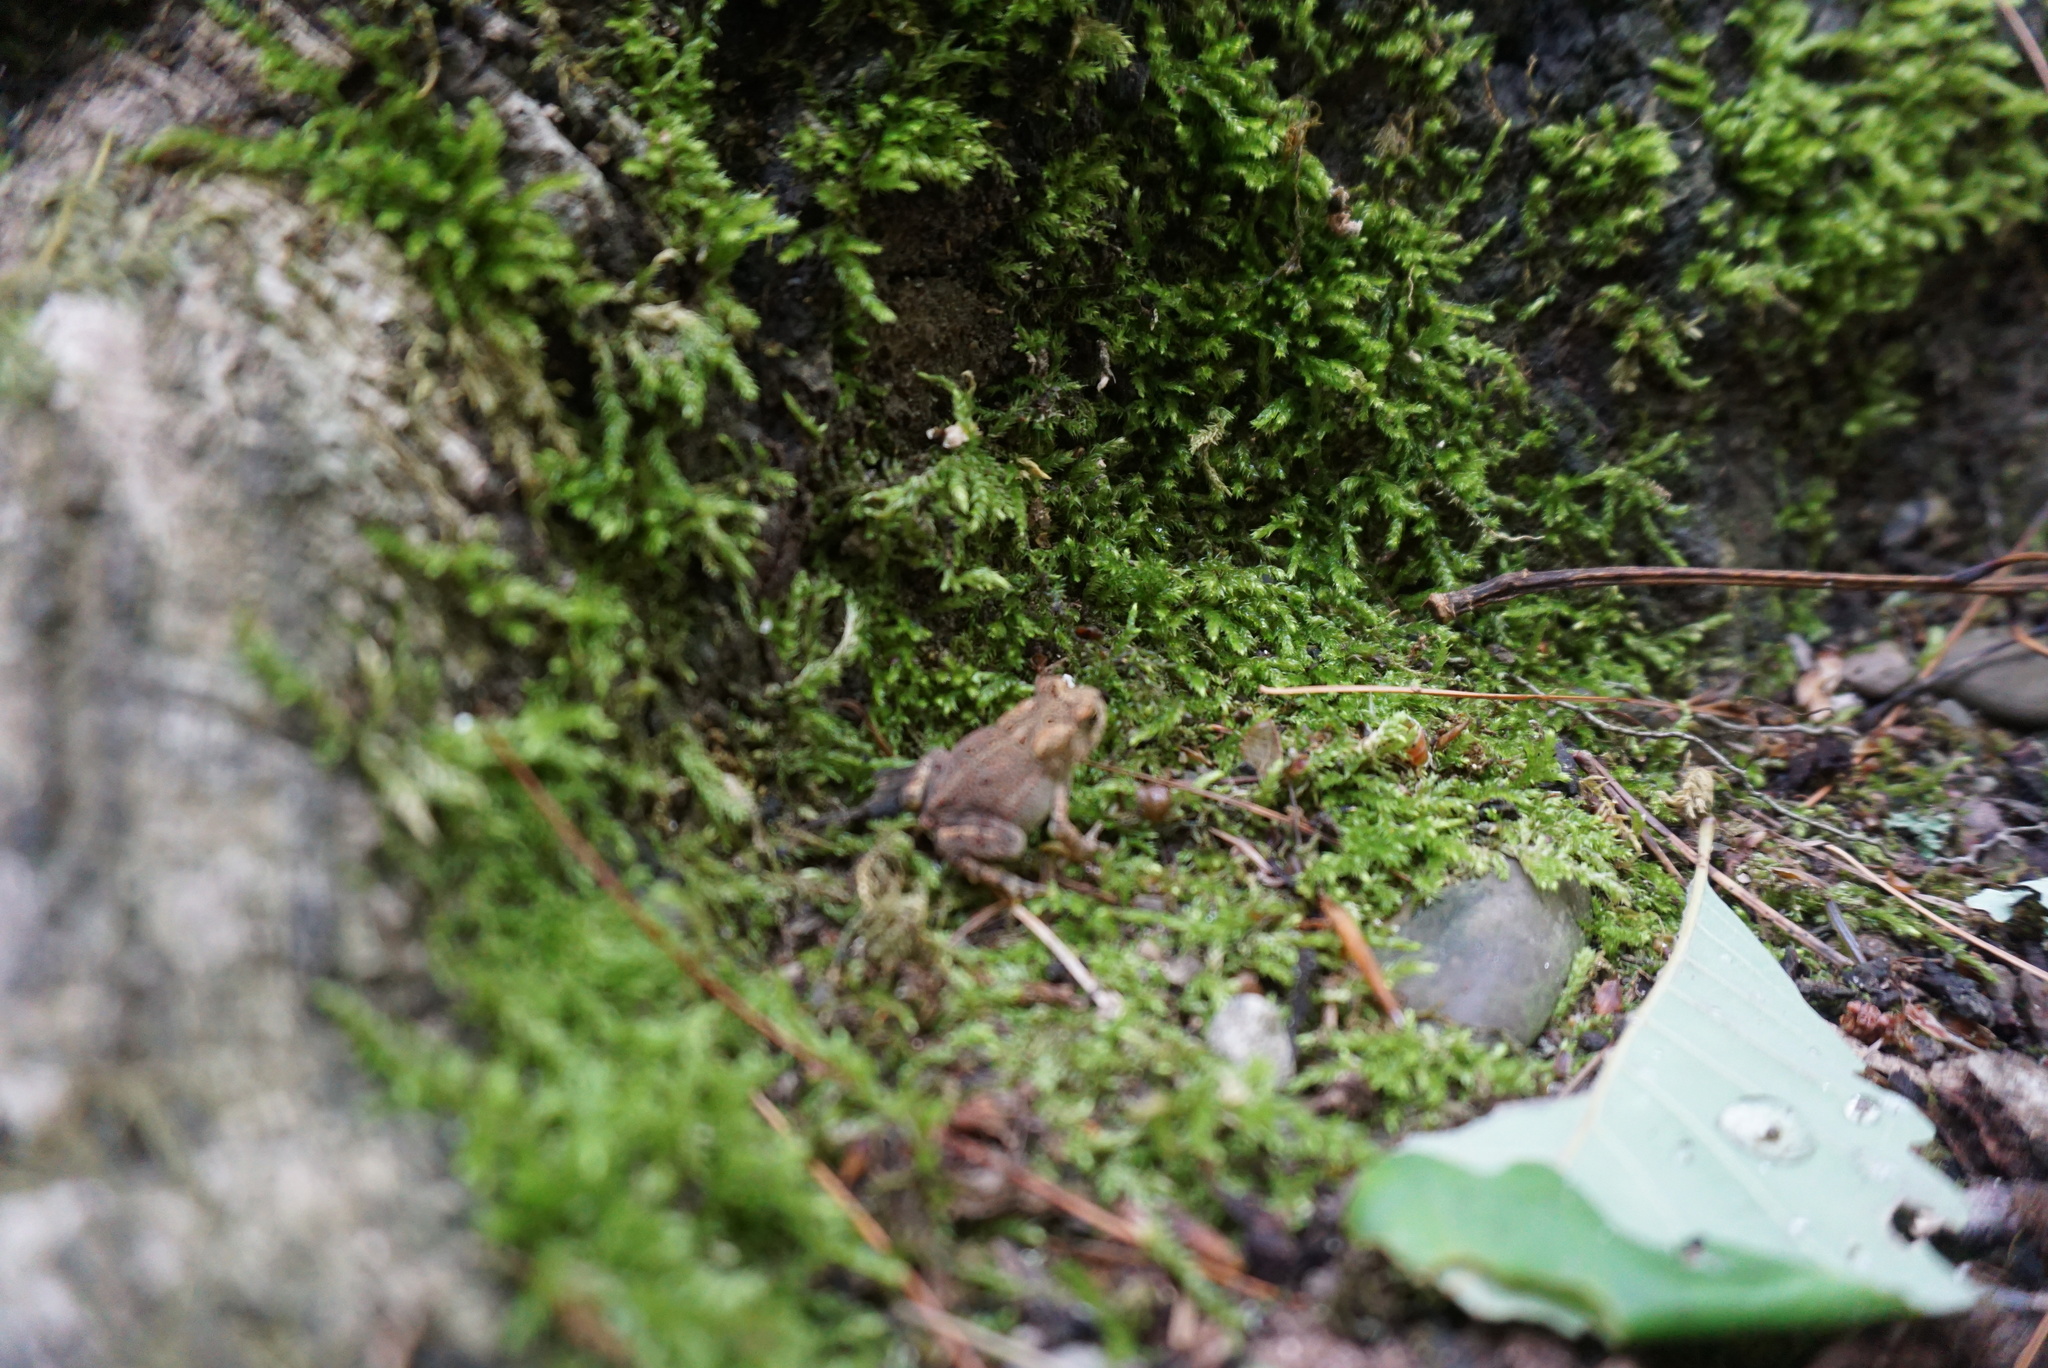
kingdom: Animalia
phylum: Chordata
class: Amphibia
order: Anura
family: Bufonidae
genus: Anaxyrus
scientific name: Anaxyrus americanus
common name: American toad
